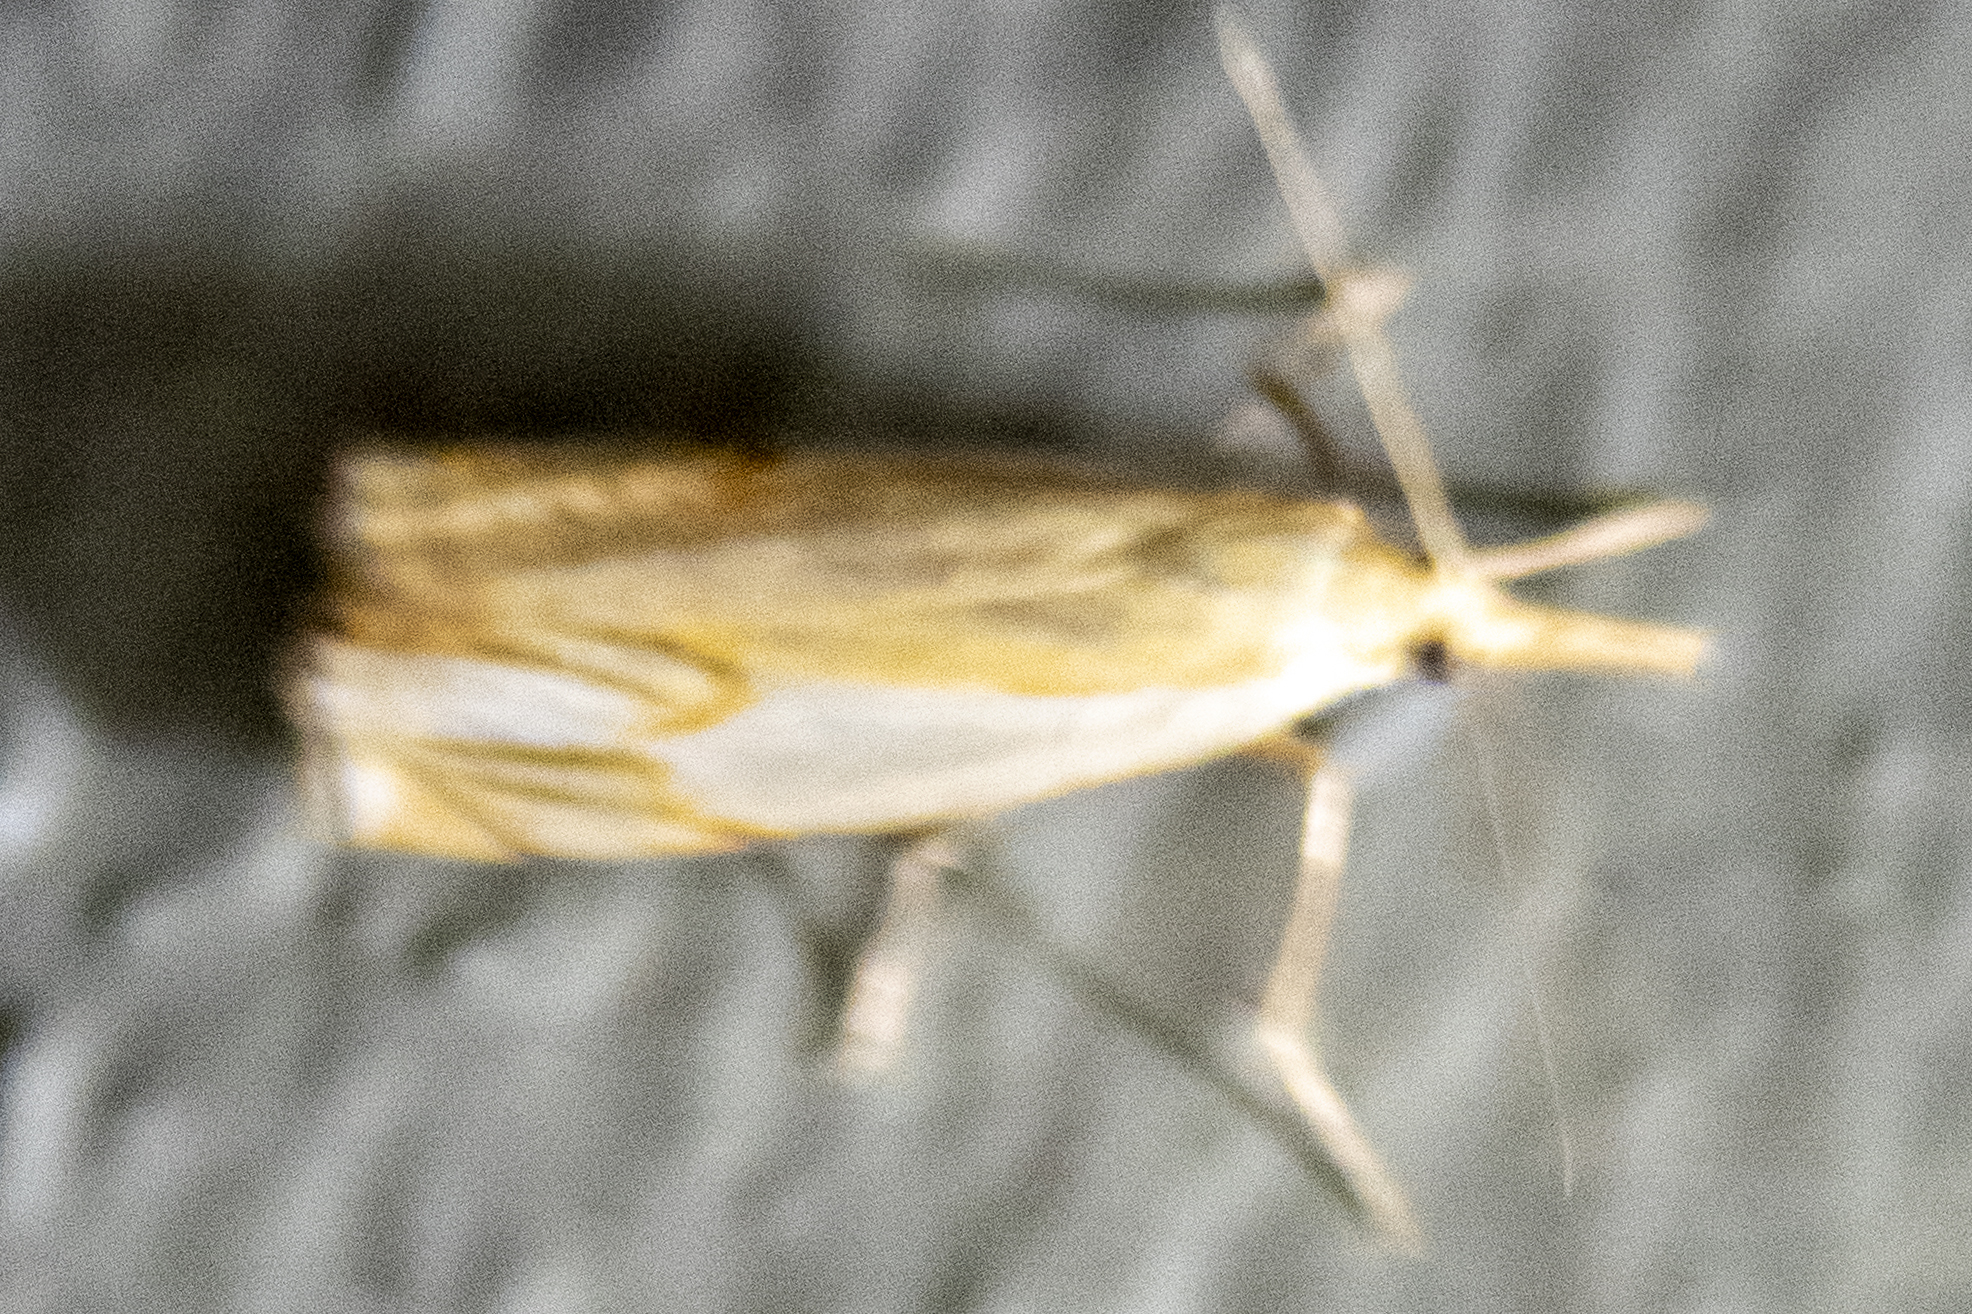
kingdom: Animalia
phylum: Arthropoda
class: Insecta
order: Lepidoptera
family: Crambidae
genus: Crambus
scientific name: Crambus agitatellus
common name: Double-banded grass-veneer
